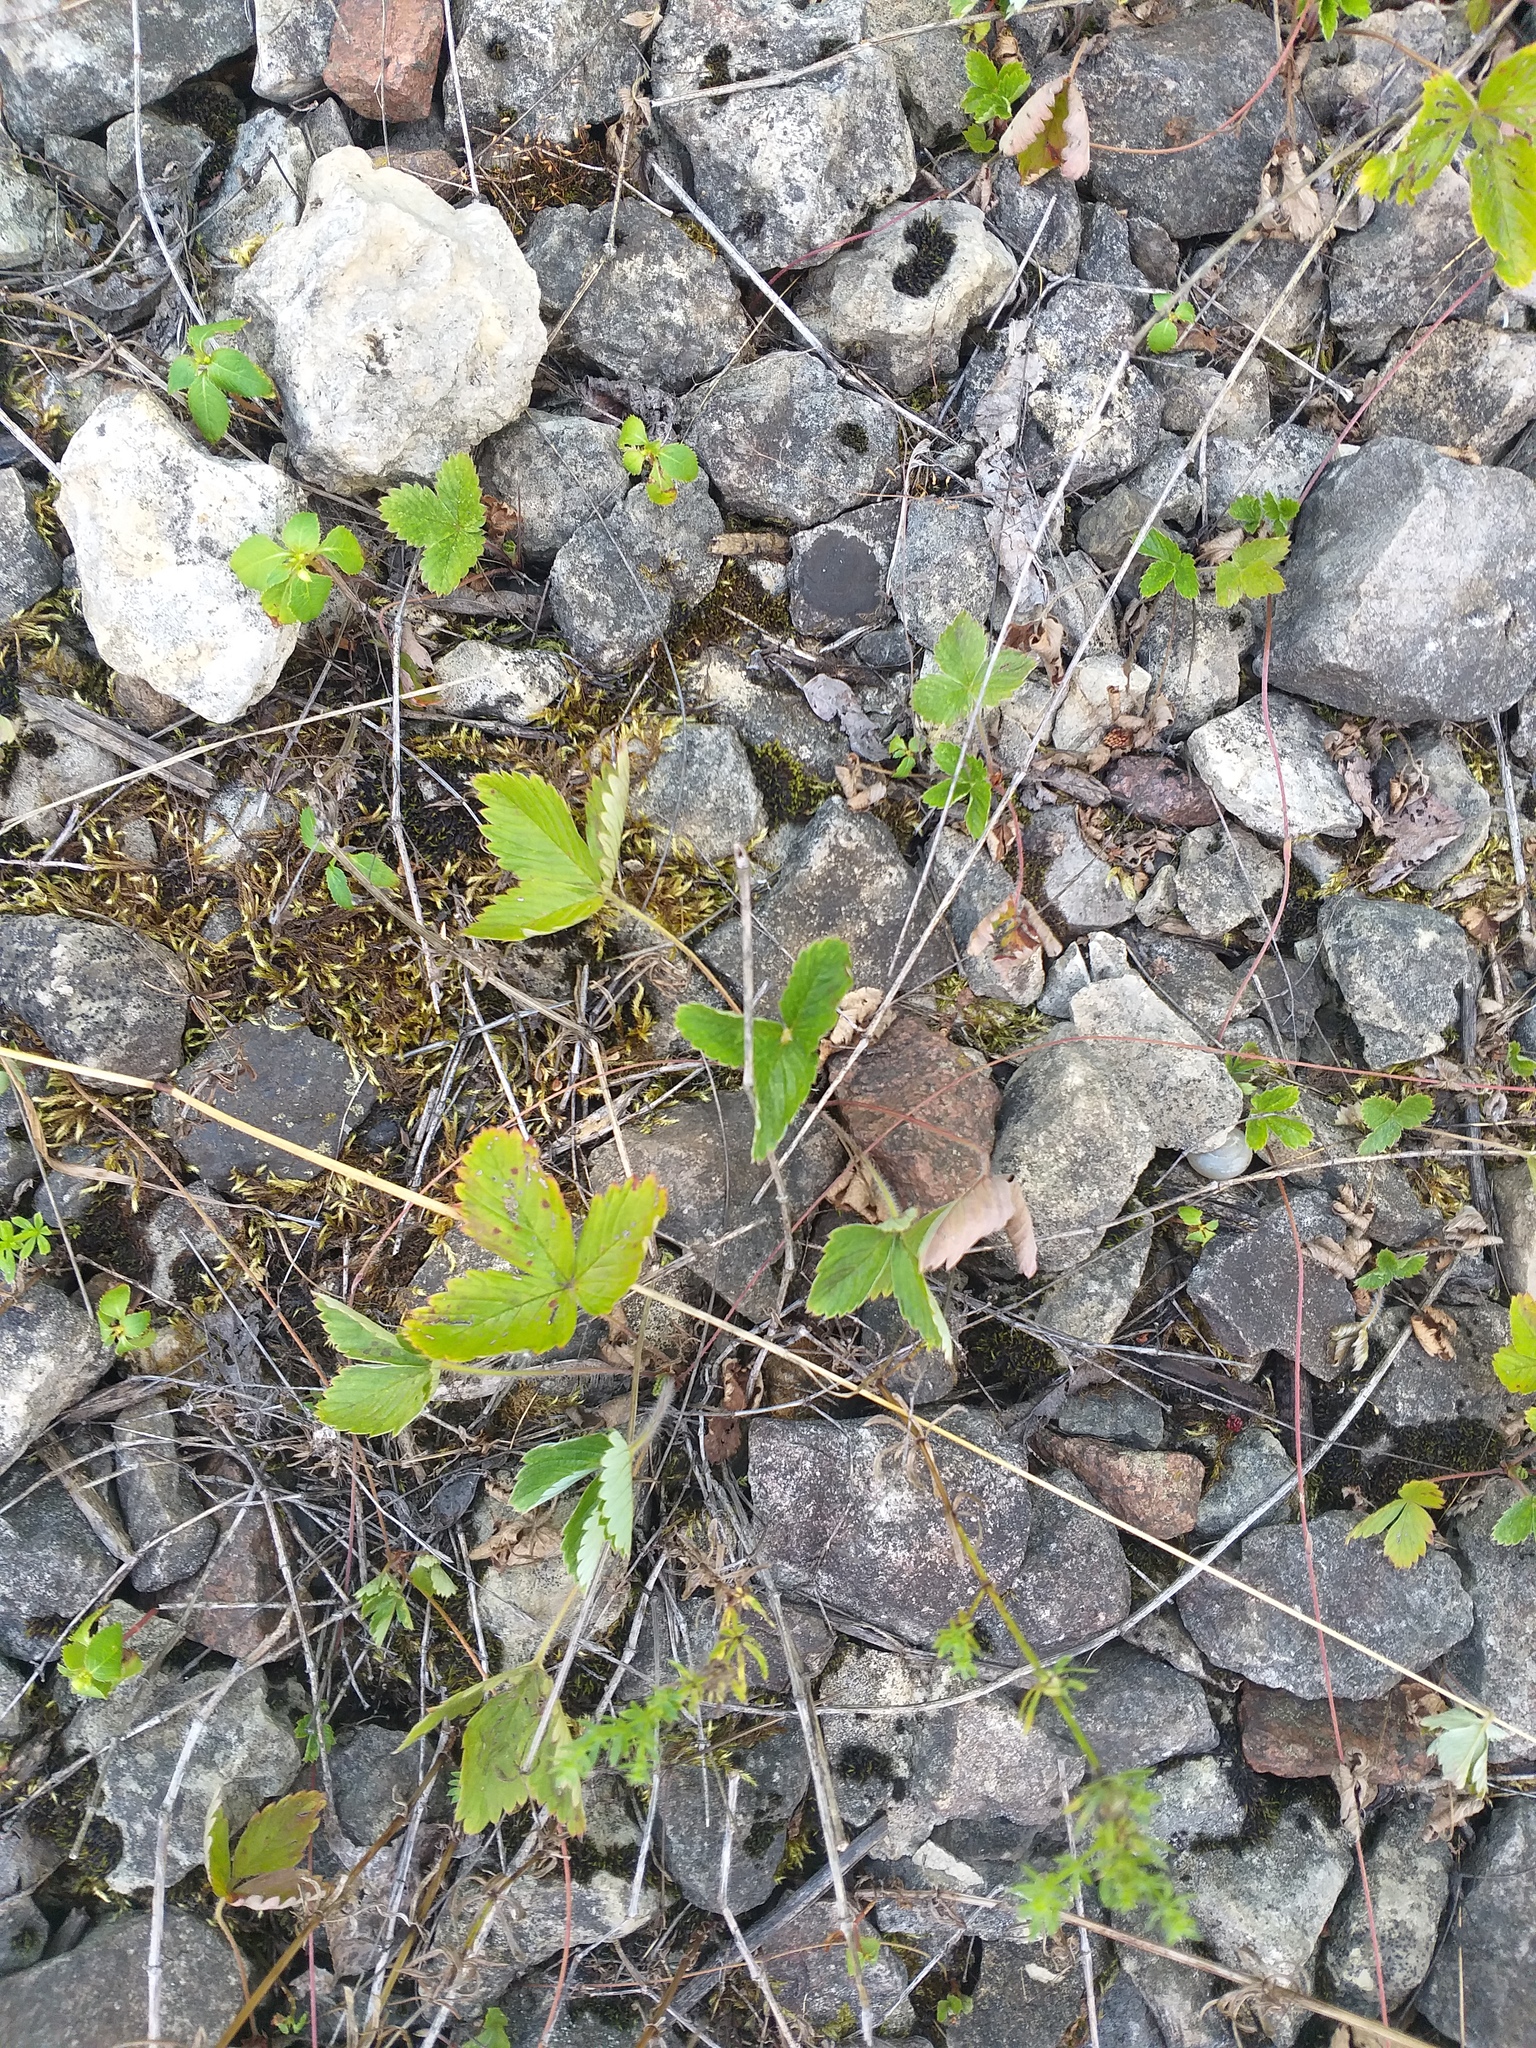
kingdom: Plantae
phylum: Tracheophyta
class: Magnoliopsida
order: Rosales
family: Rosaceae
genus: Fragaria
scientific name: Fragaria vesca
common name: Wild strawberry
